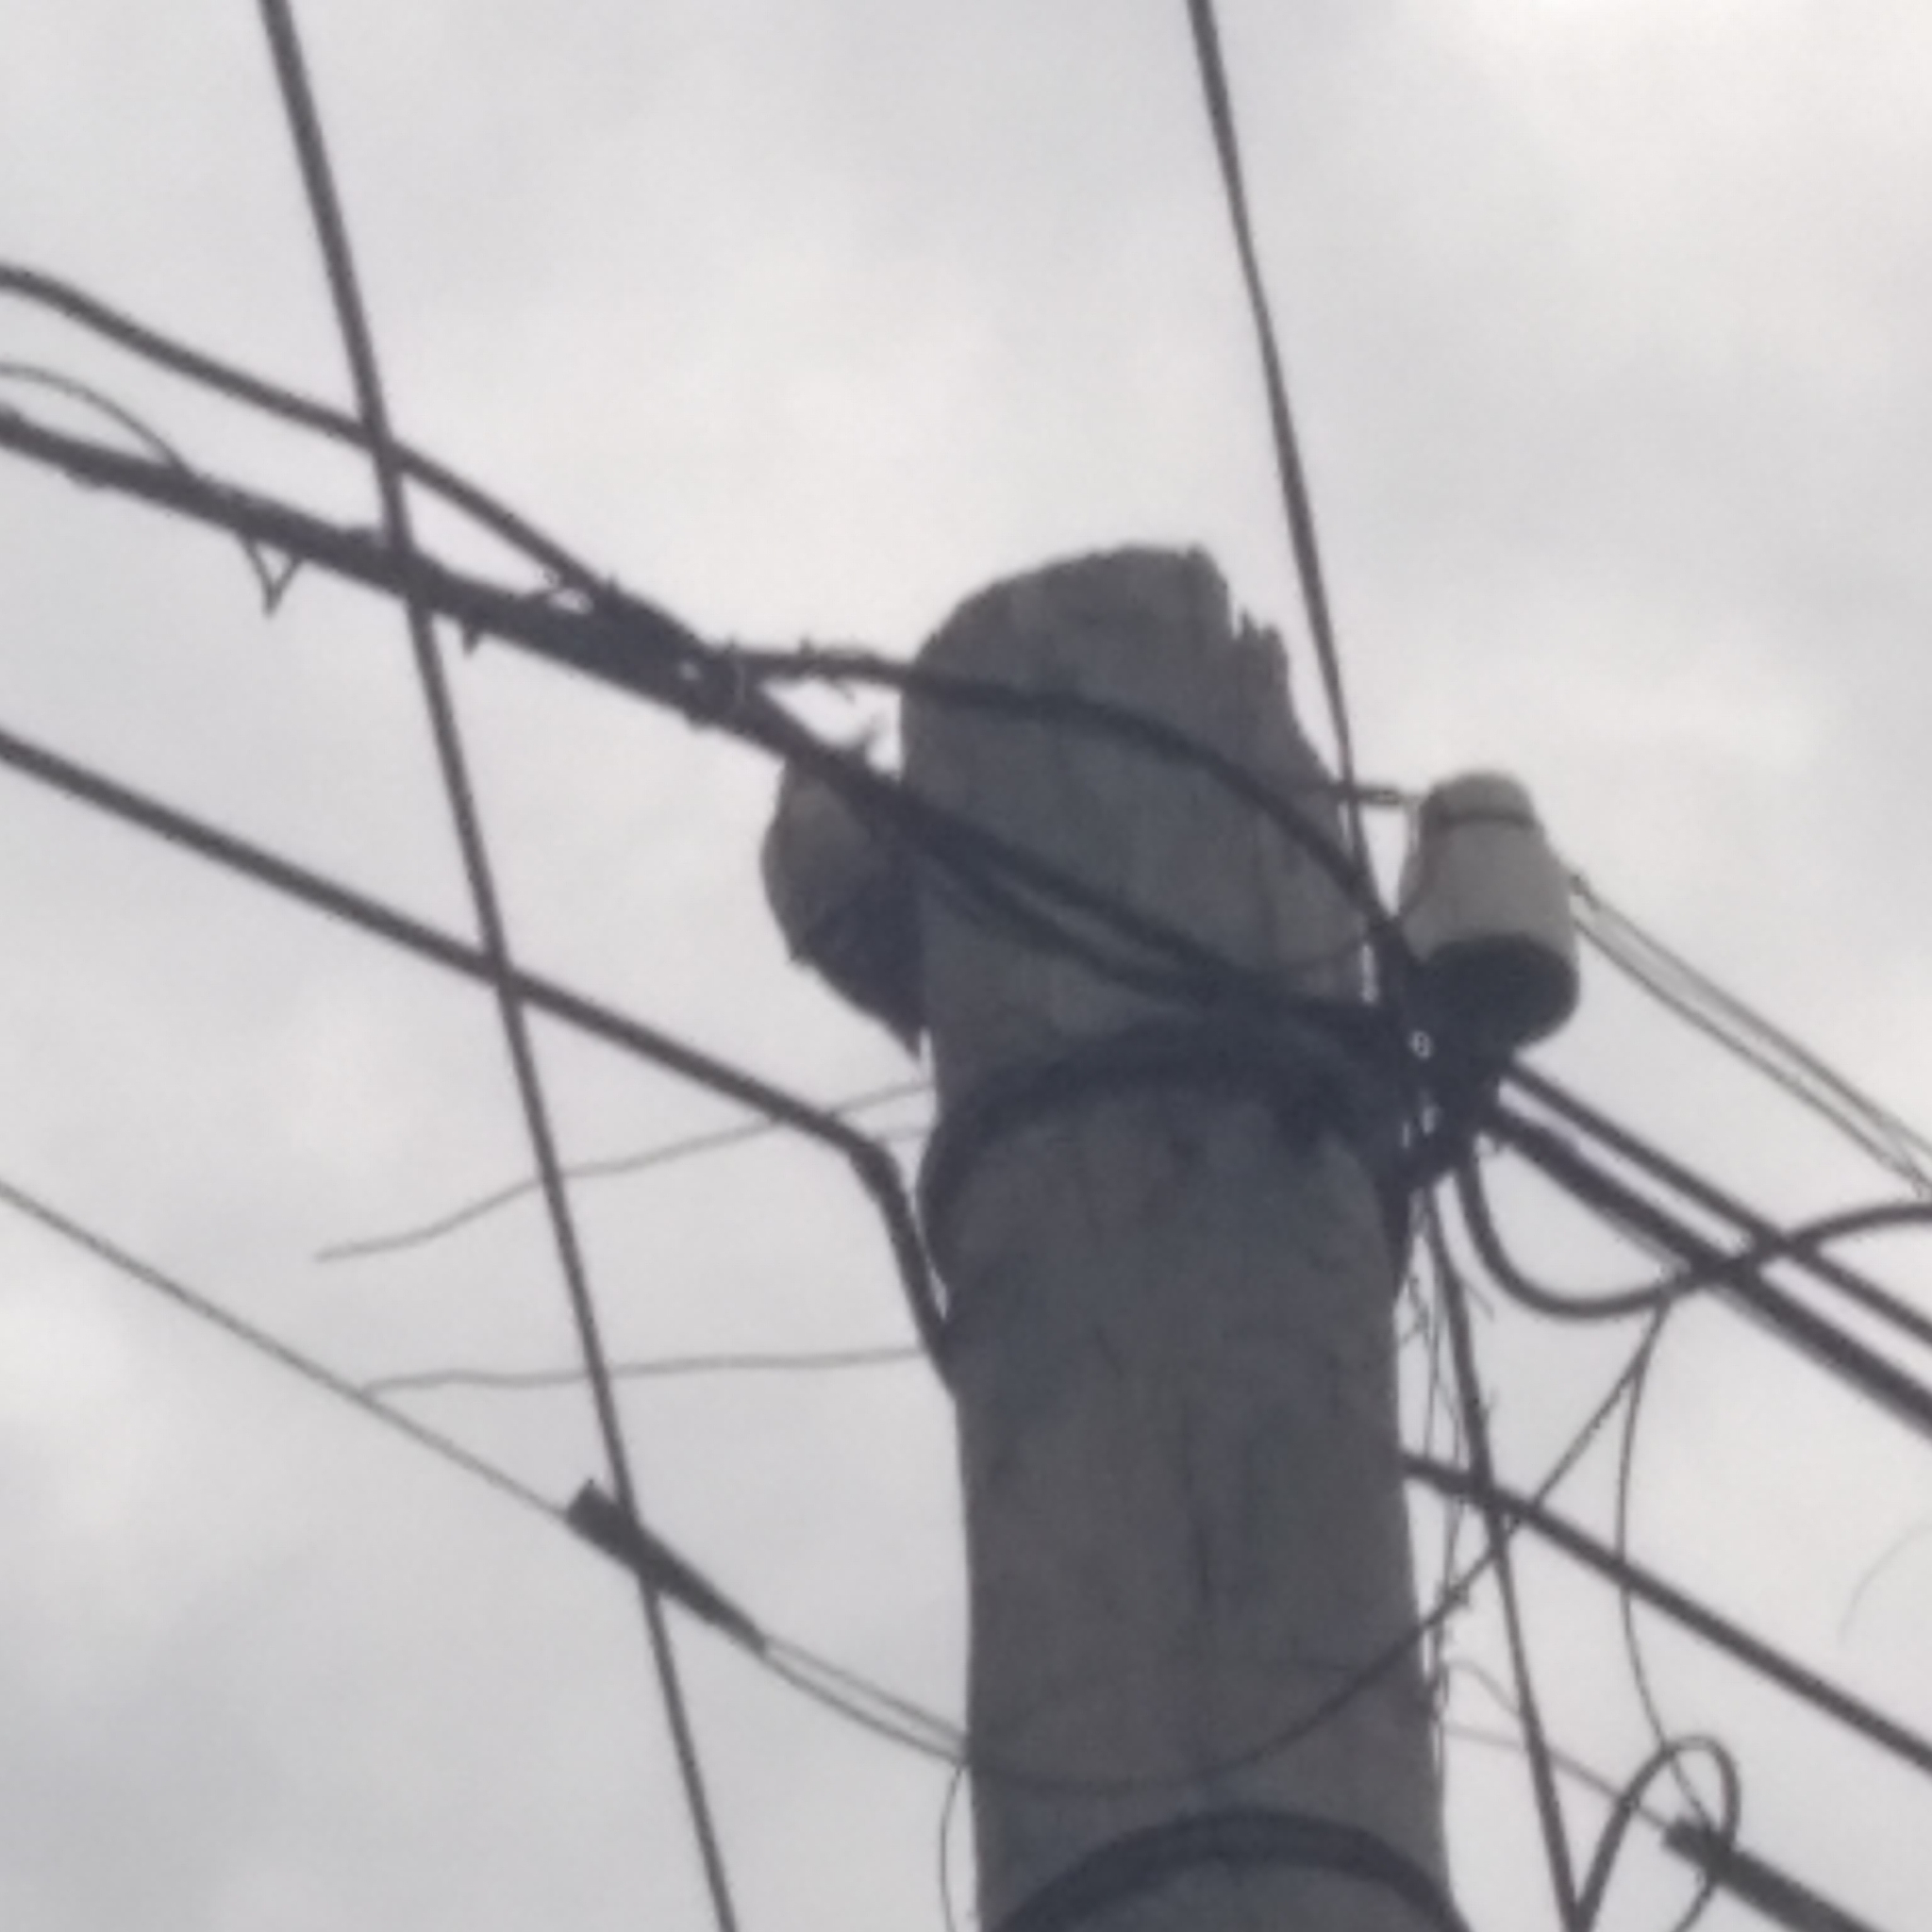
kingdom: Animalia
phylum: Chordata
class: Aves
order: Piciformes
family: Picidae
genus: Dendrocopos
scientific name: Dendrocopos
